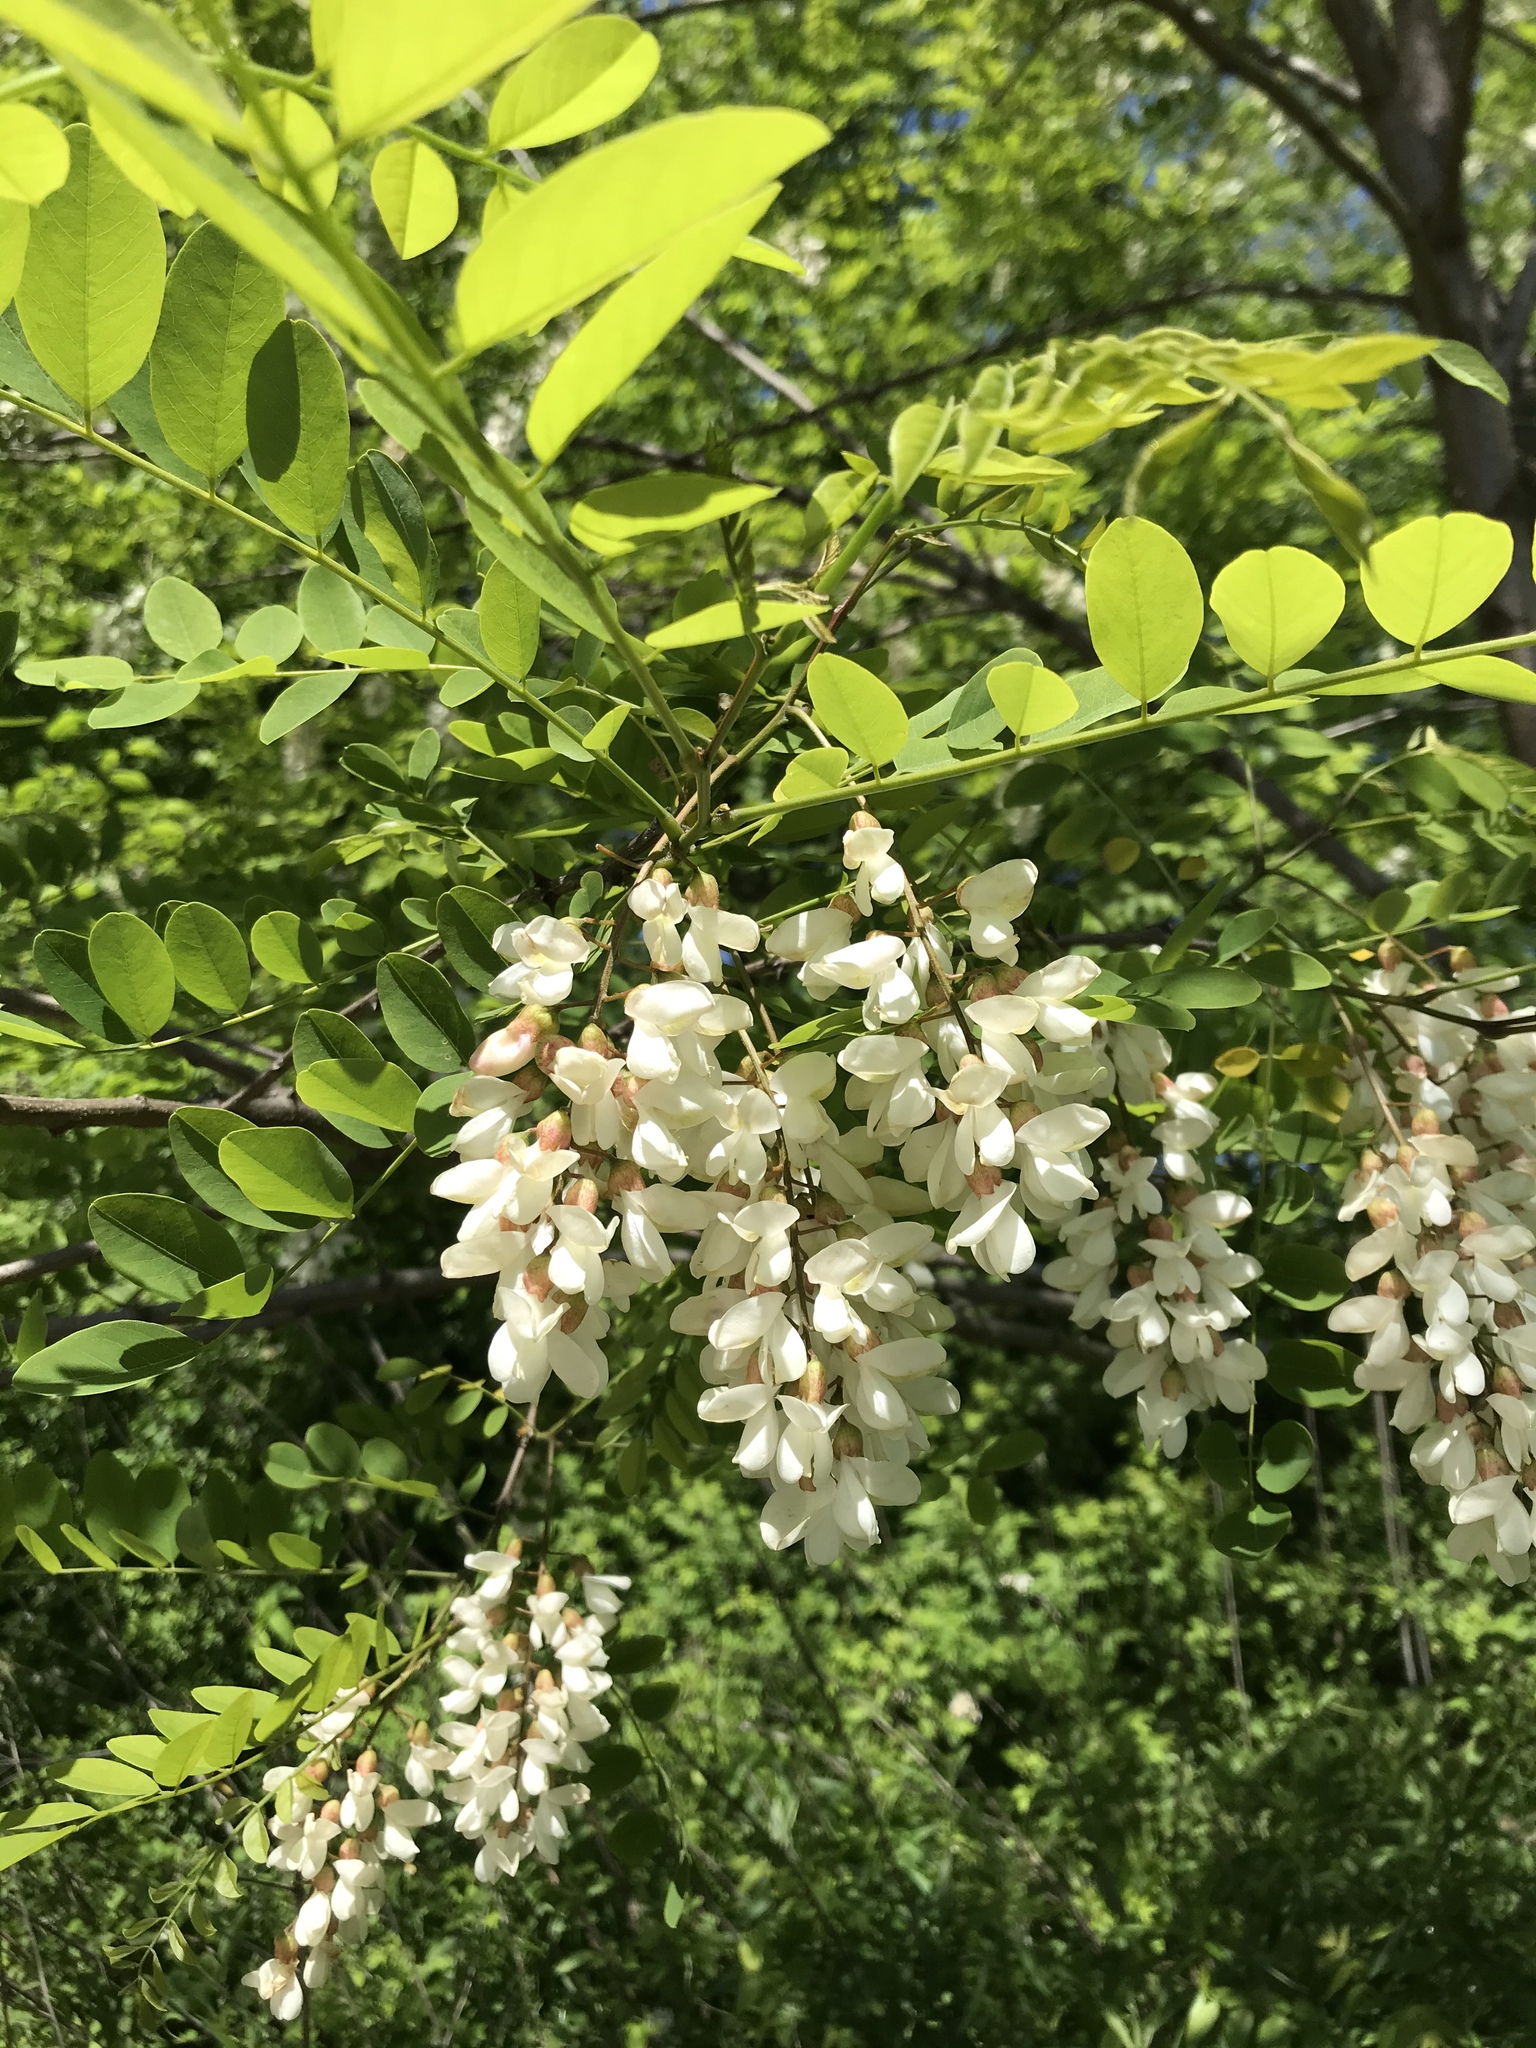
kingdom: Plantae
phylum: Tracheophyta
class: Magnoliopsida
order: Fabales
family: Fabaceae
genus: Robinia
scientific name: Robinia pseudoacacia
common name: Black locust
